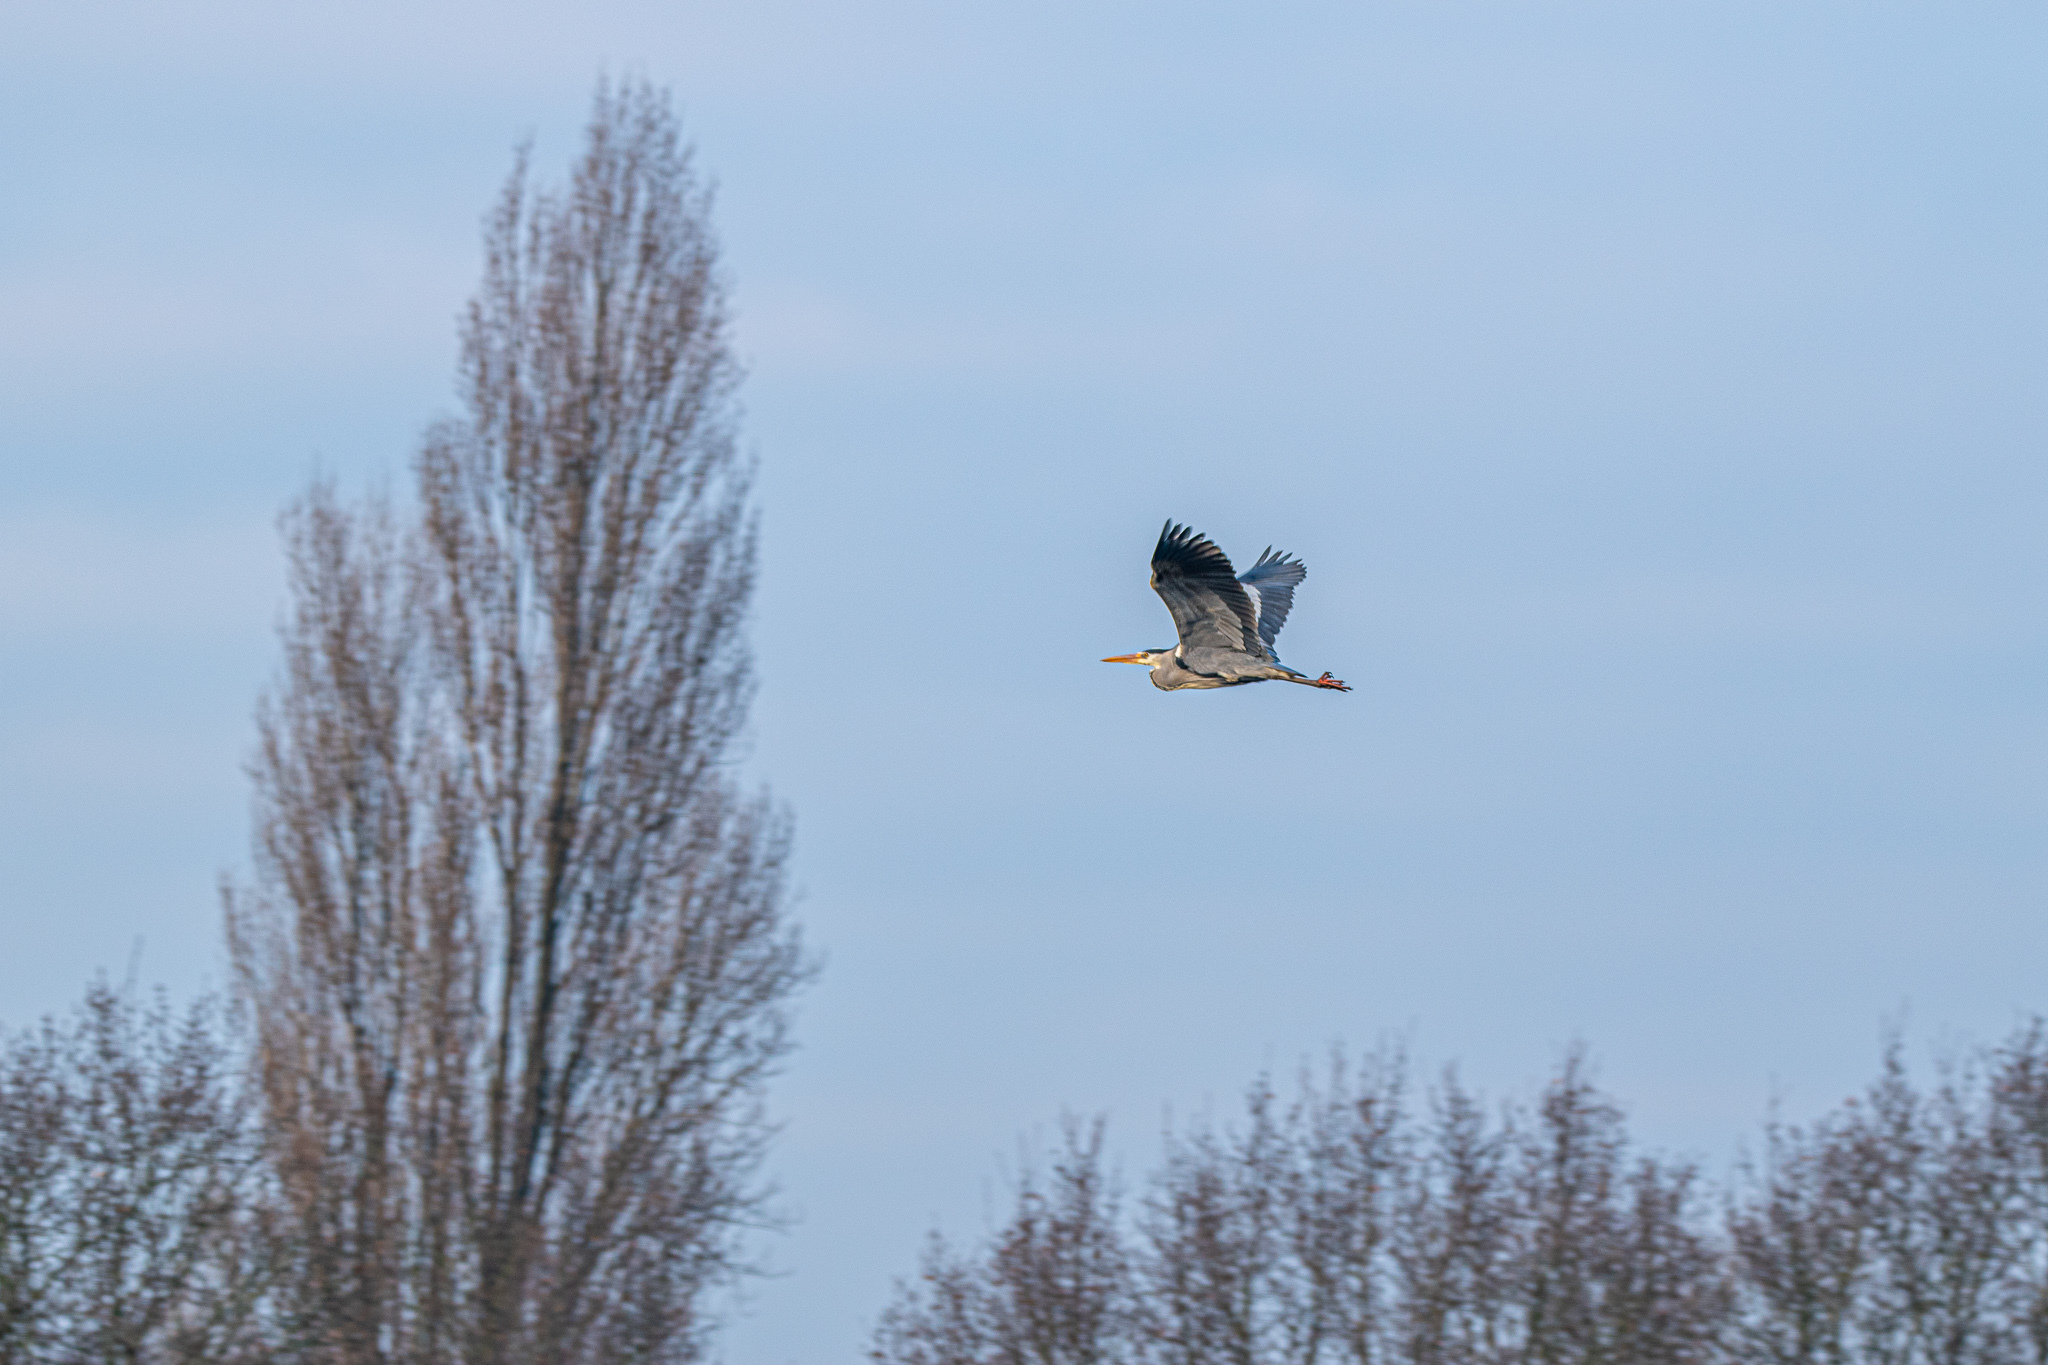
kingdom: Animalia
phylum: Chordata
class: Aves
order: Pelecaniformes
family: Ardeidae
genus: Ardea
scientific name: Ardea cinerea
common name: Grey heron
